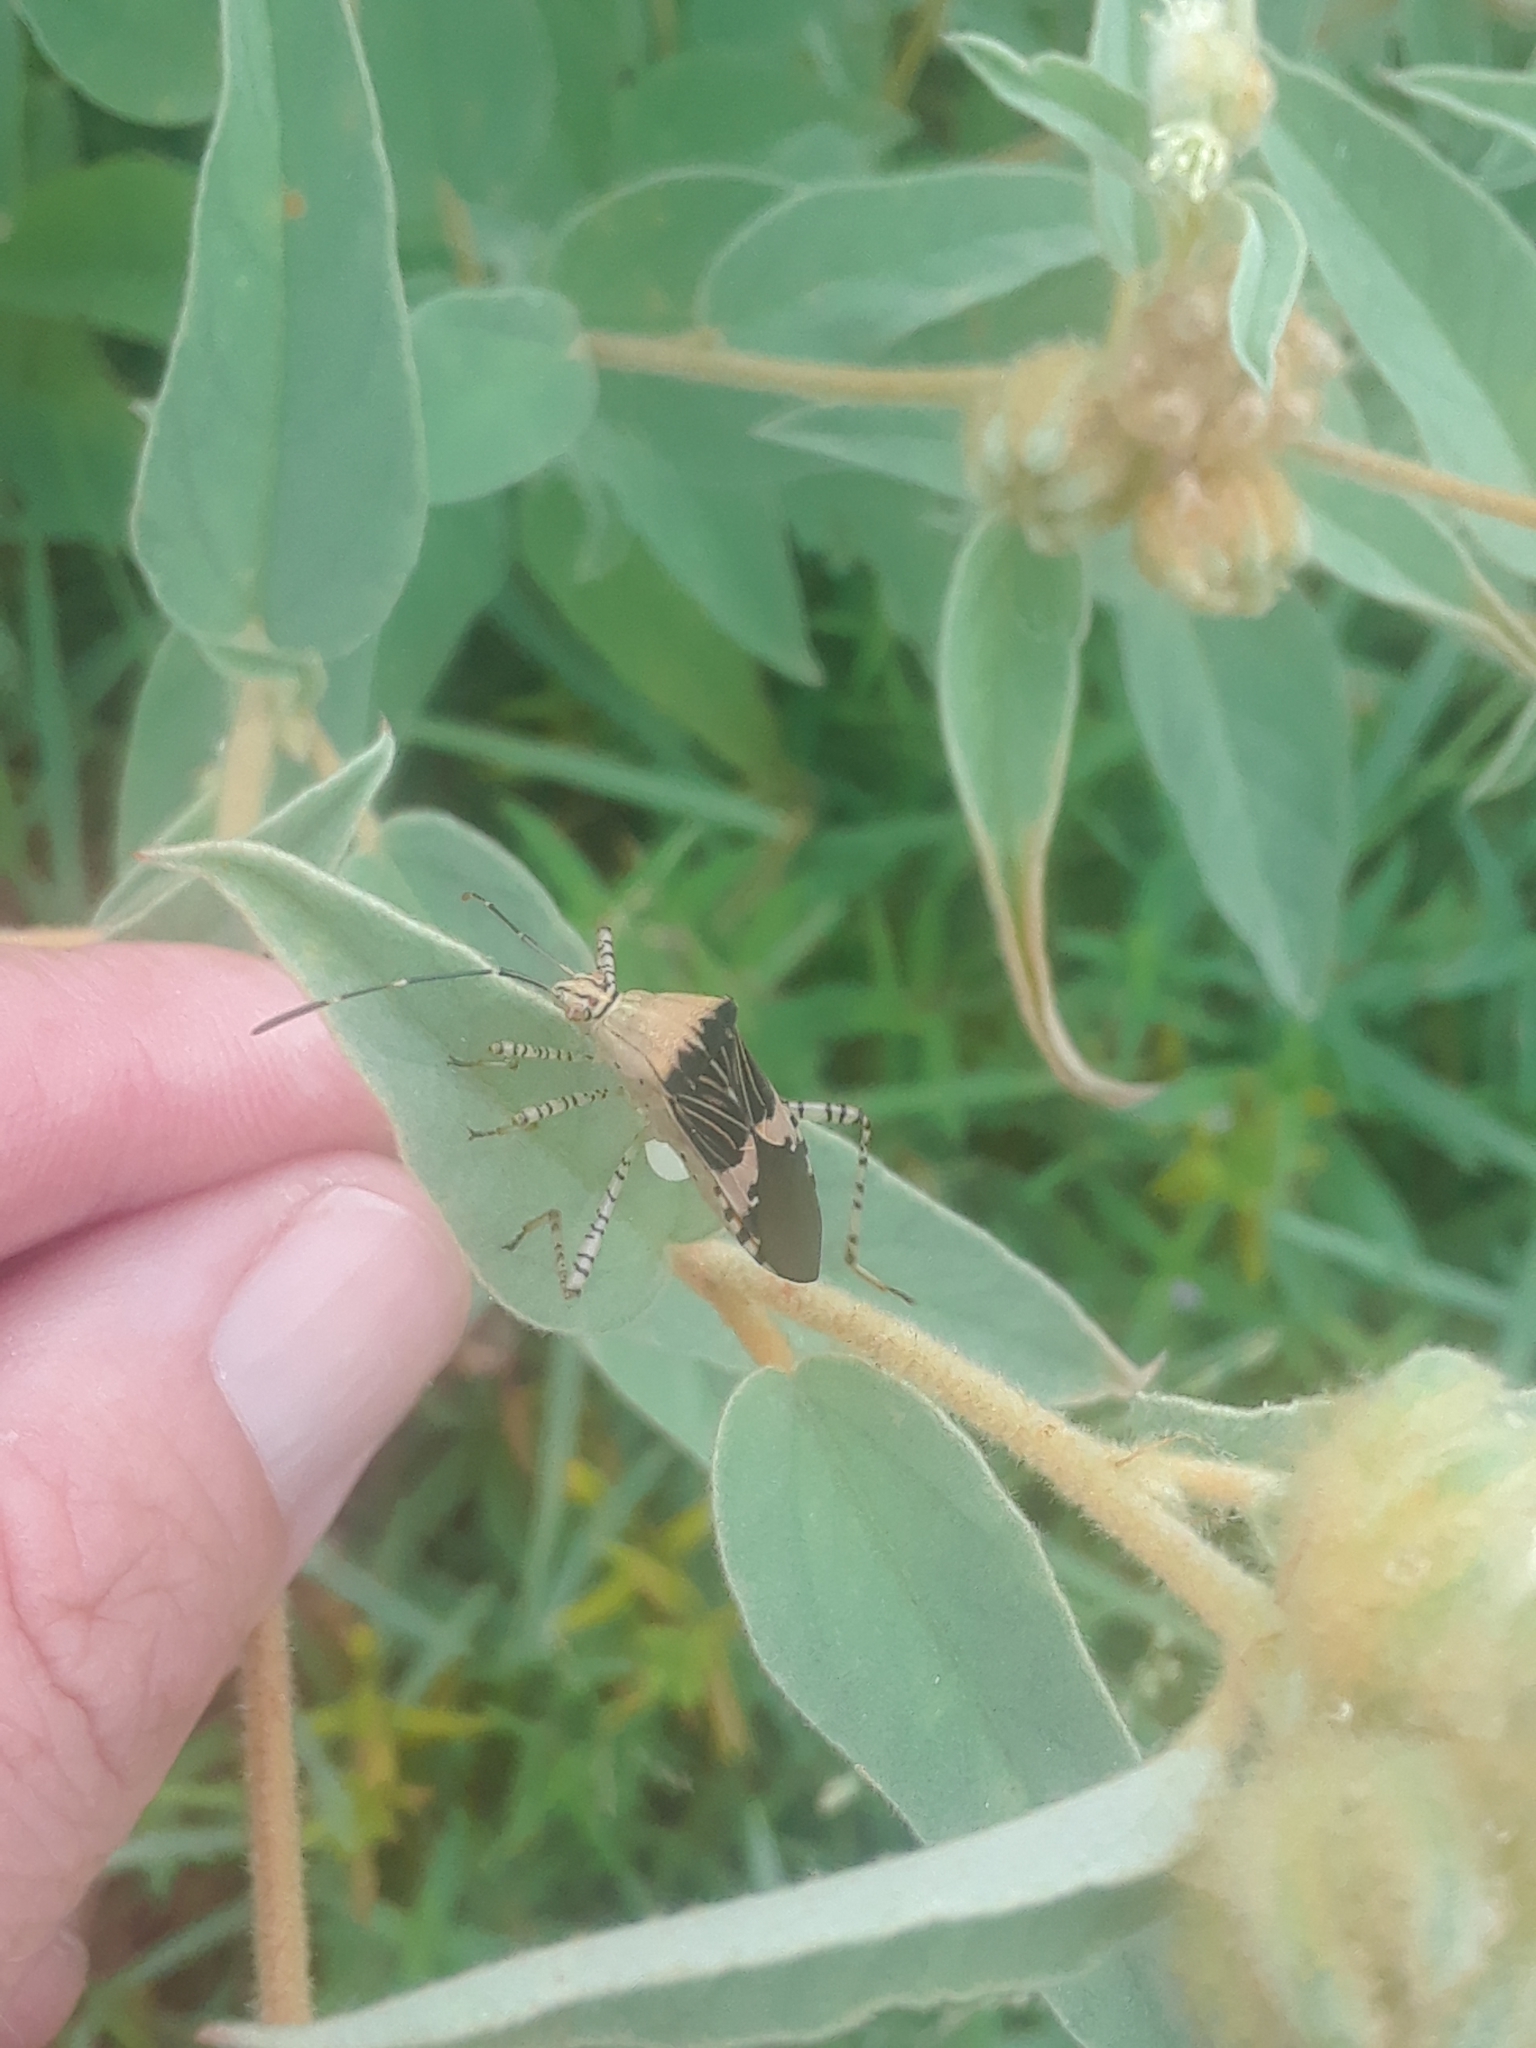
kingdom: Animalia
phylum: Arthropoda
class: Insecta
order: Hemiptera
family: Coreidae
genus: Hypselonotus
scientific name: Hypselonotus punctiventris
